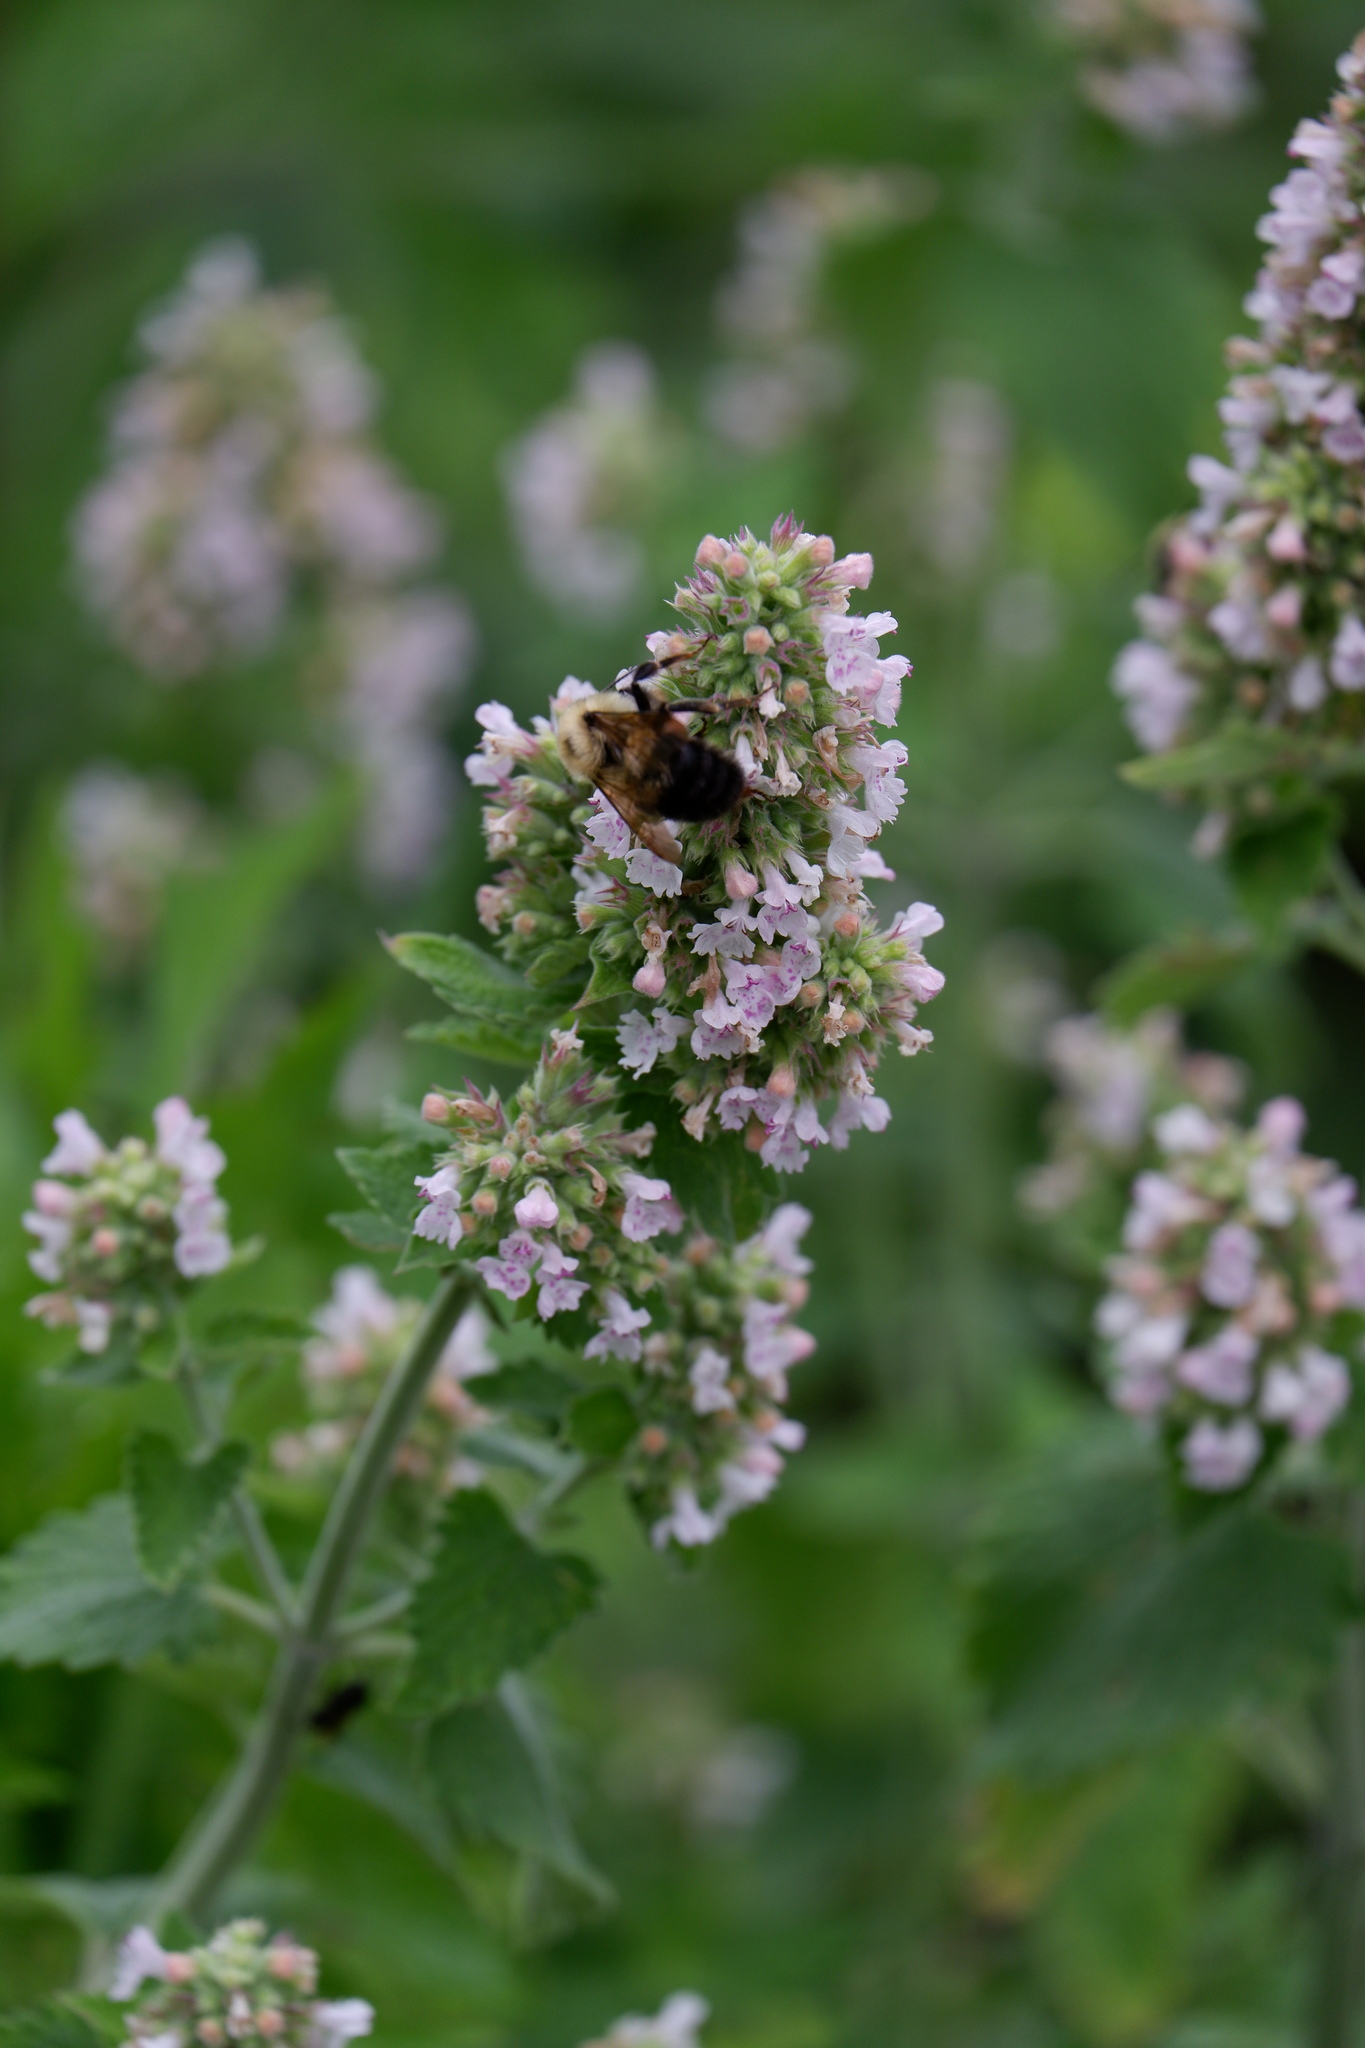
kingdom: Plantae
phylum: Tracheophyta
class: Magnoliopsida
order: Lamiales
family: Lamiaceae
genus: Nepeta
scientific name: Nepeta cataria
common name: Catnip
